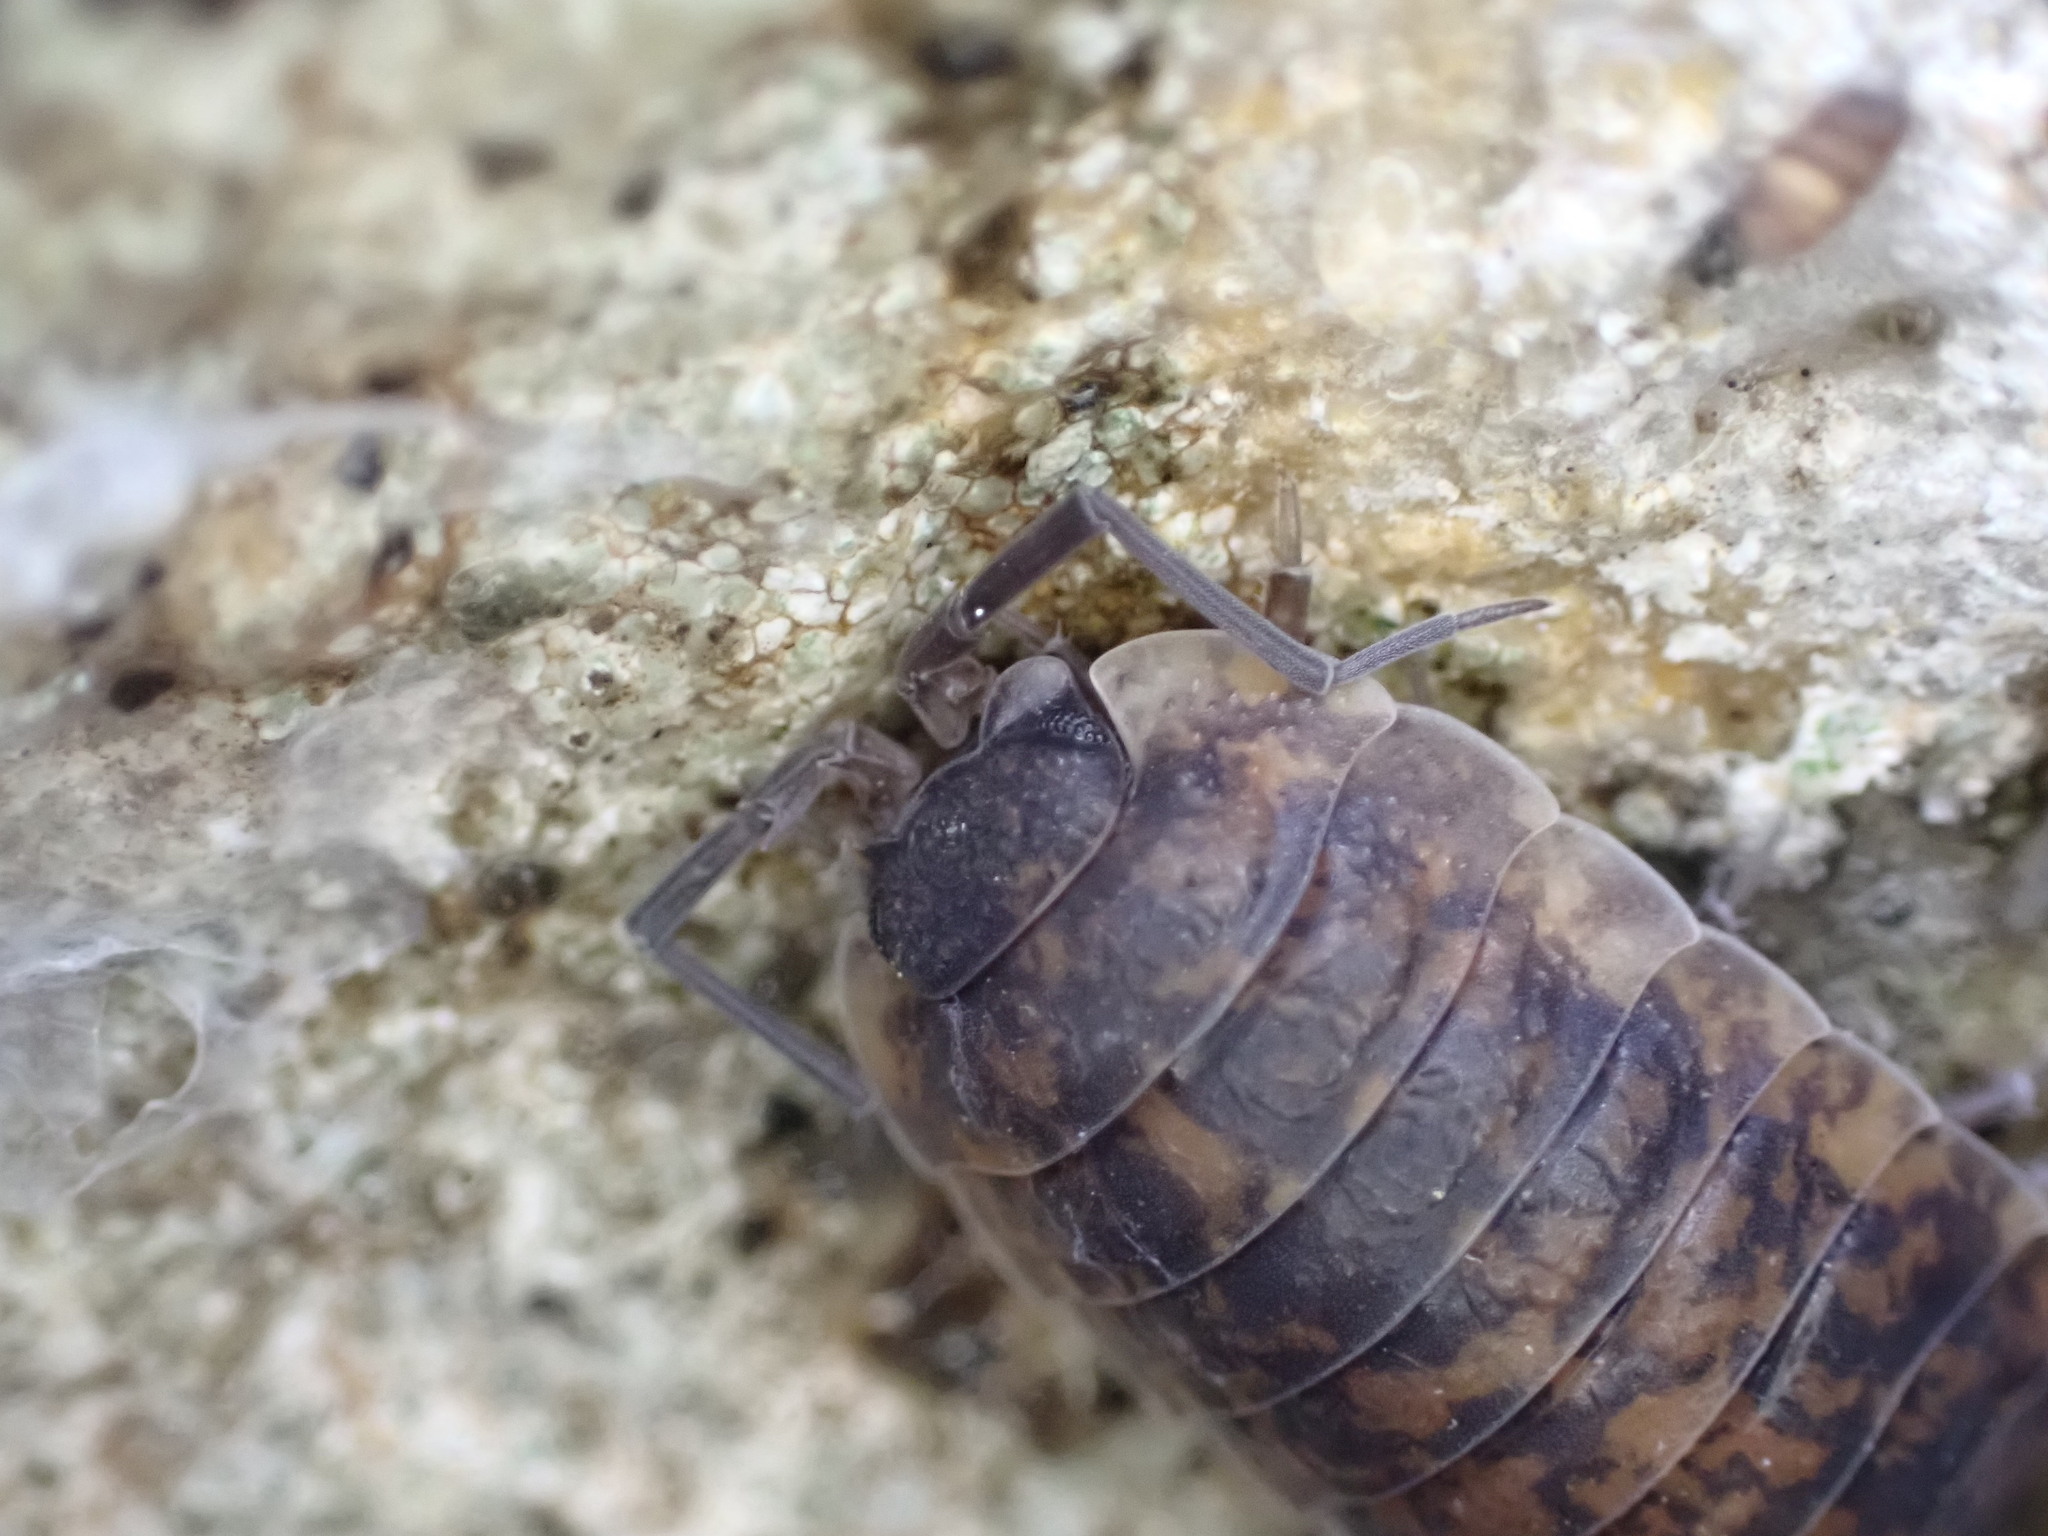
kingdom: Animalia
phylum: Arthropoda
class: Malacostraca
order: Isopoda
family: Porcellionidae
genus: Porcellio
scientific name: Porcellio orarum
